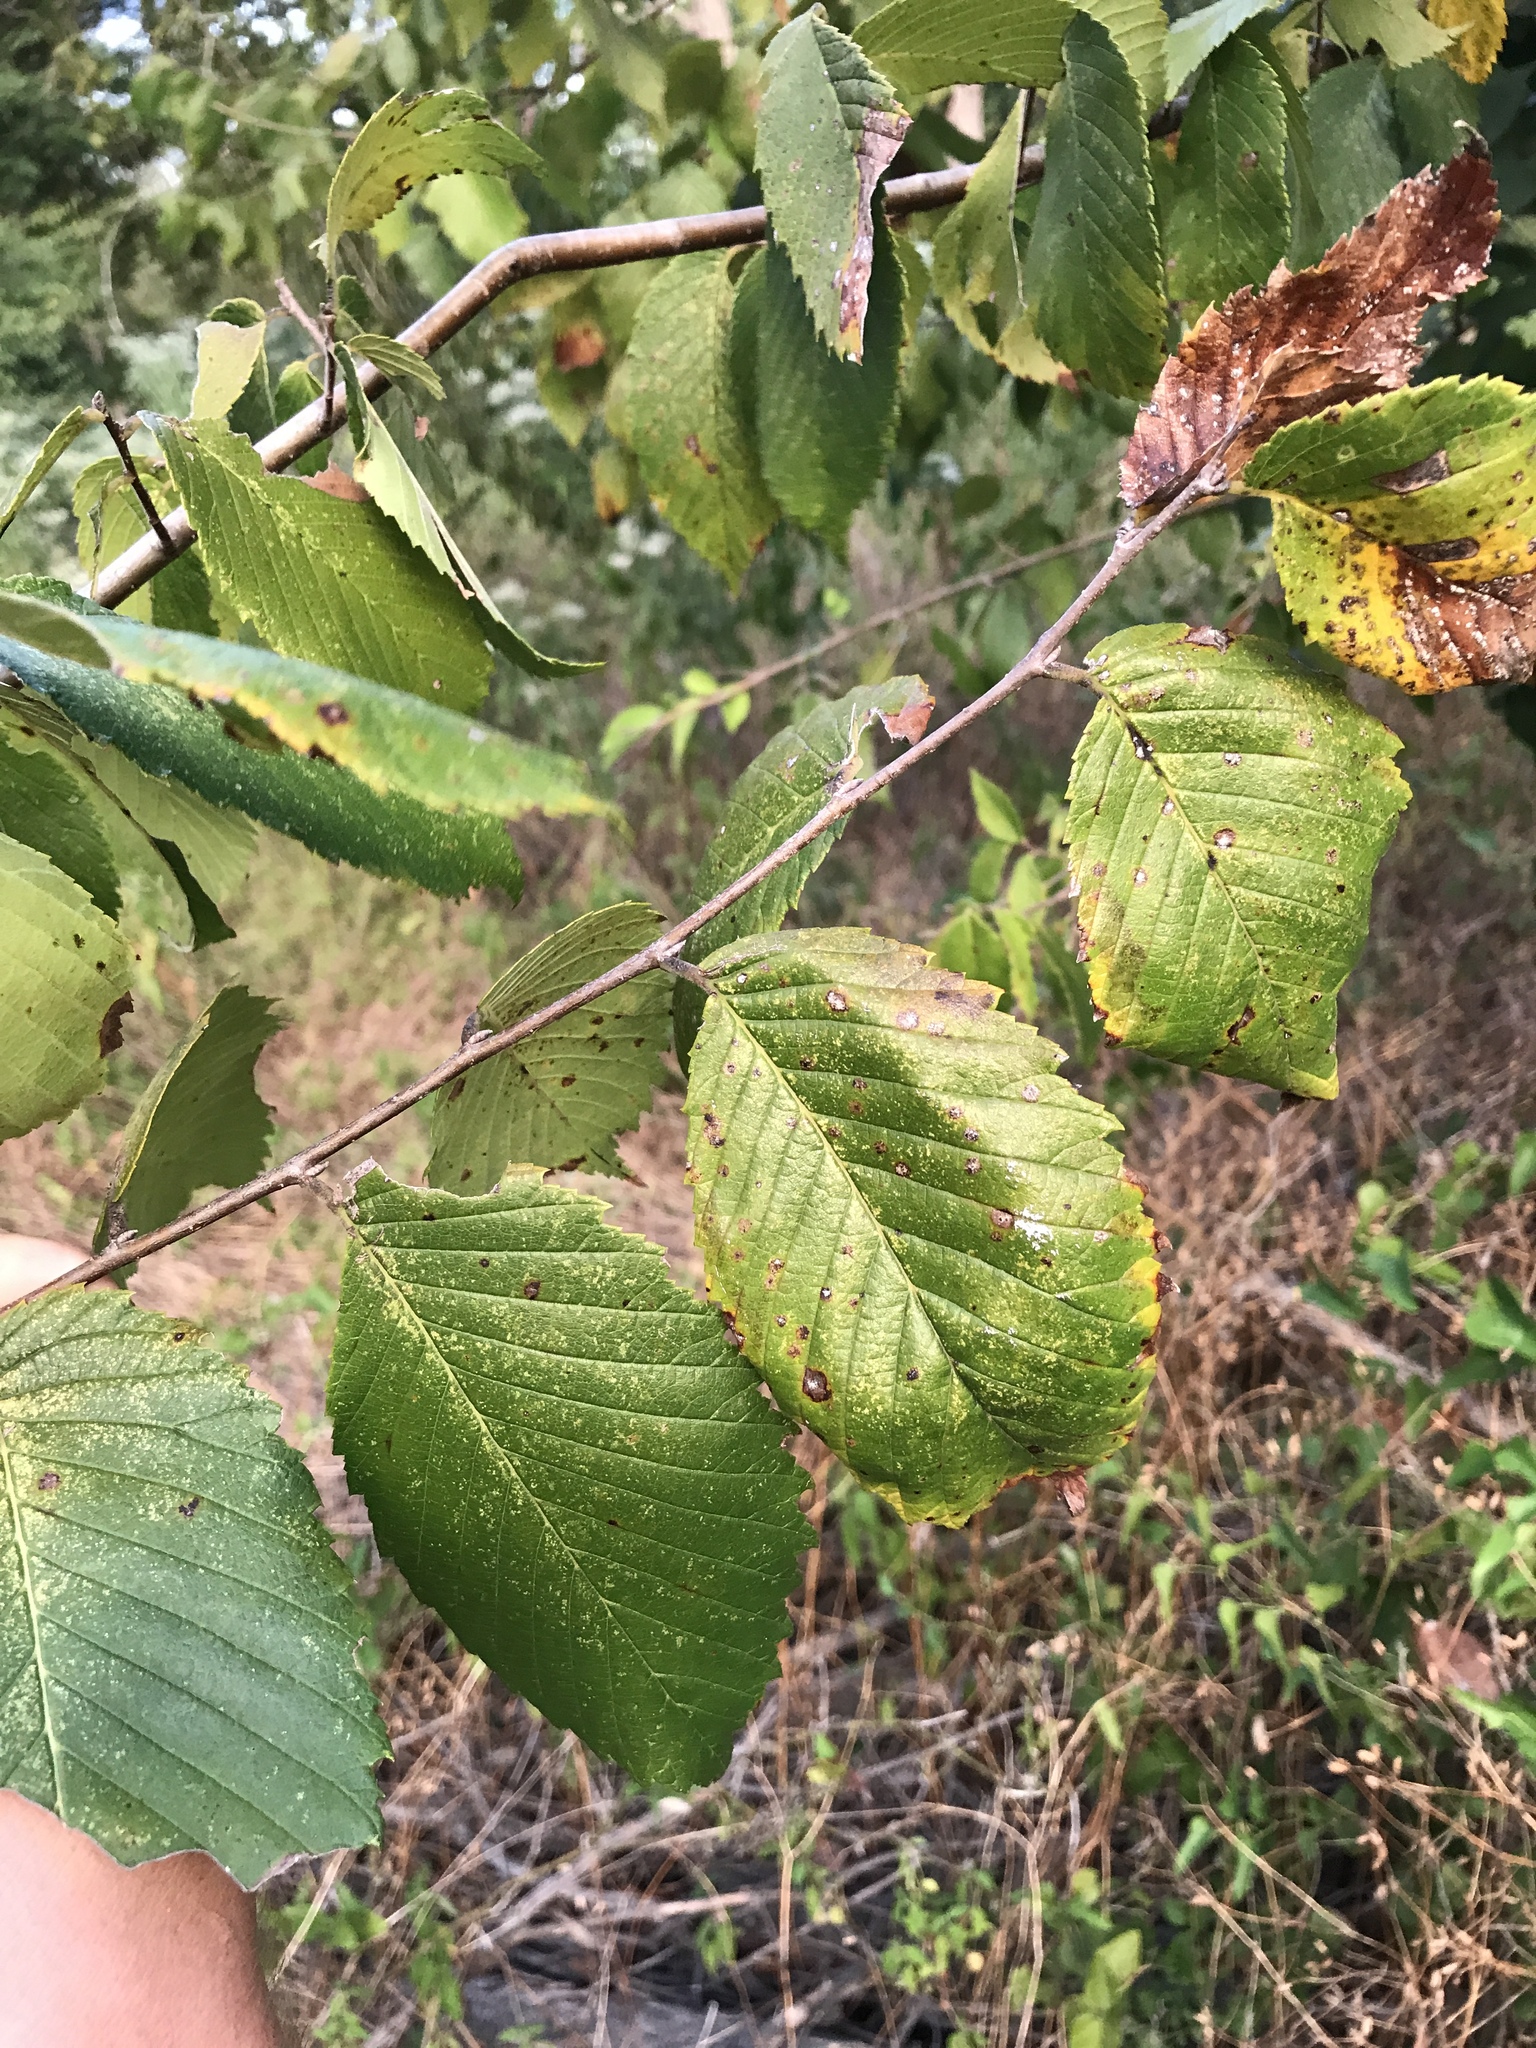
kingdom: Plantae
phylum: Tracheophyta
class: Magnoliopsida
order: Rosales
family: Ulmaceae
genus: Ulmus
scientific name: Ulmus americana
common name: American elm
